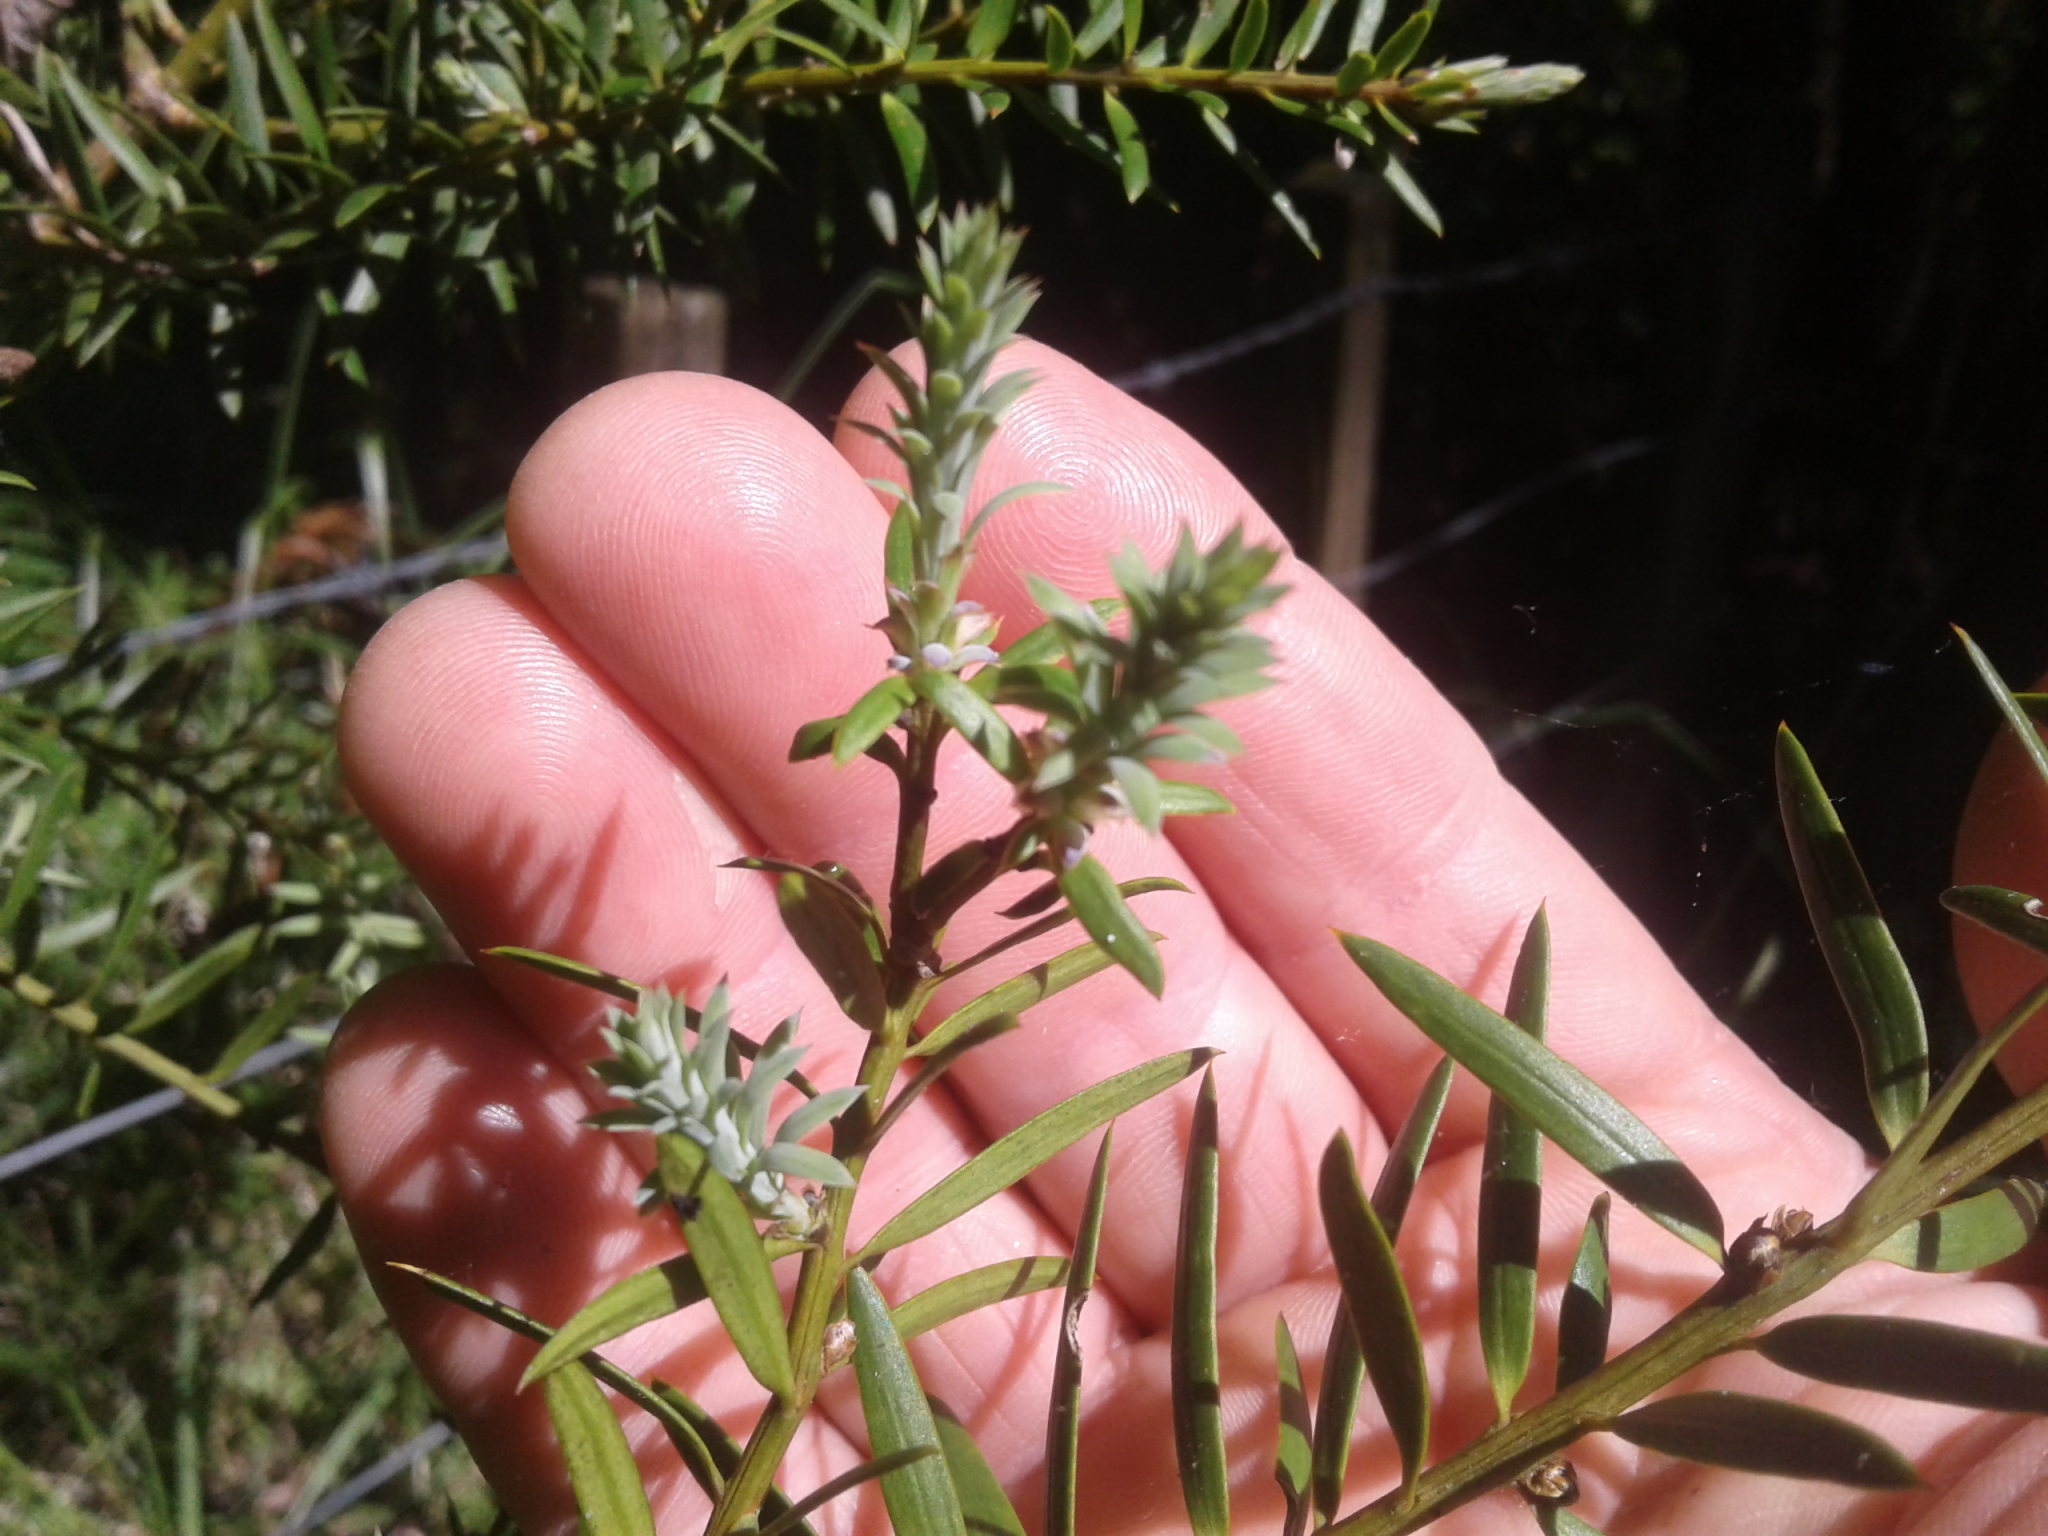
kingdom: Plantae
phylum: Tracheophyta
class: Pinopsida
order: Pinales
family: Podocarpaceae
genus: Podocarpus
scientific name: Podocarpus totara
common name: Totara
